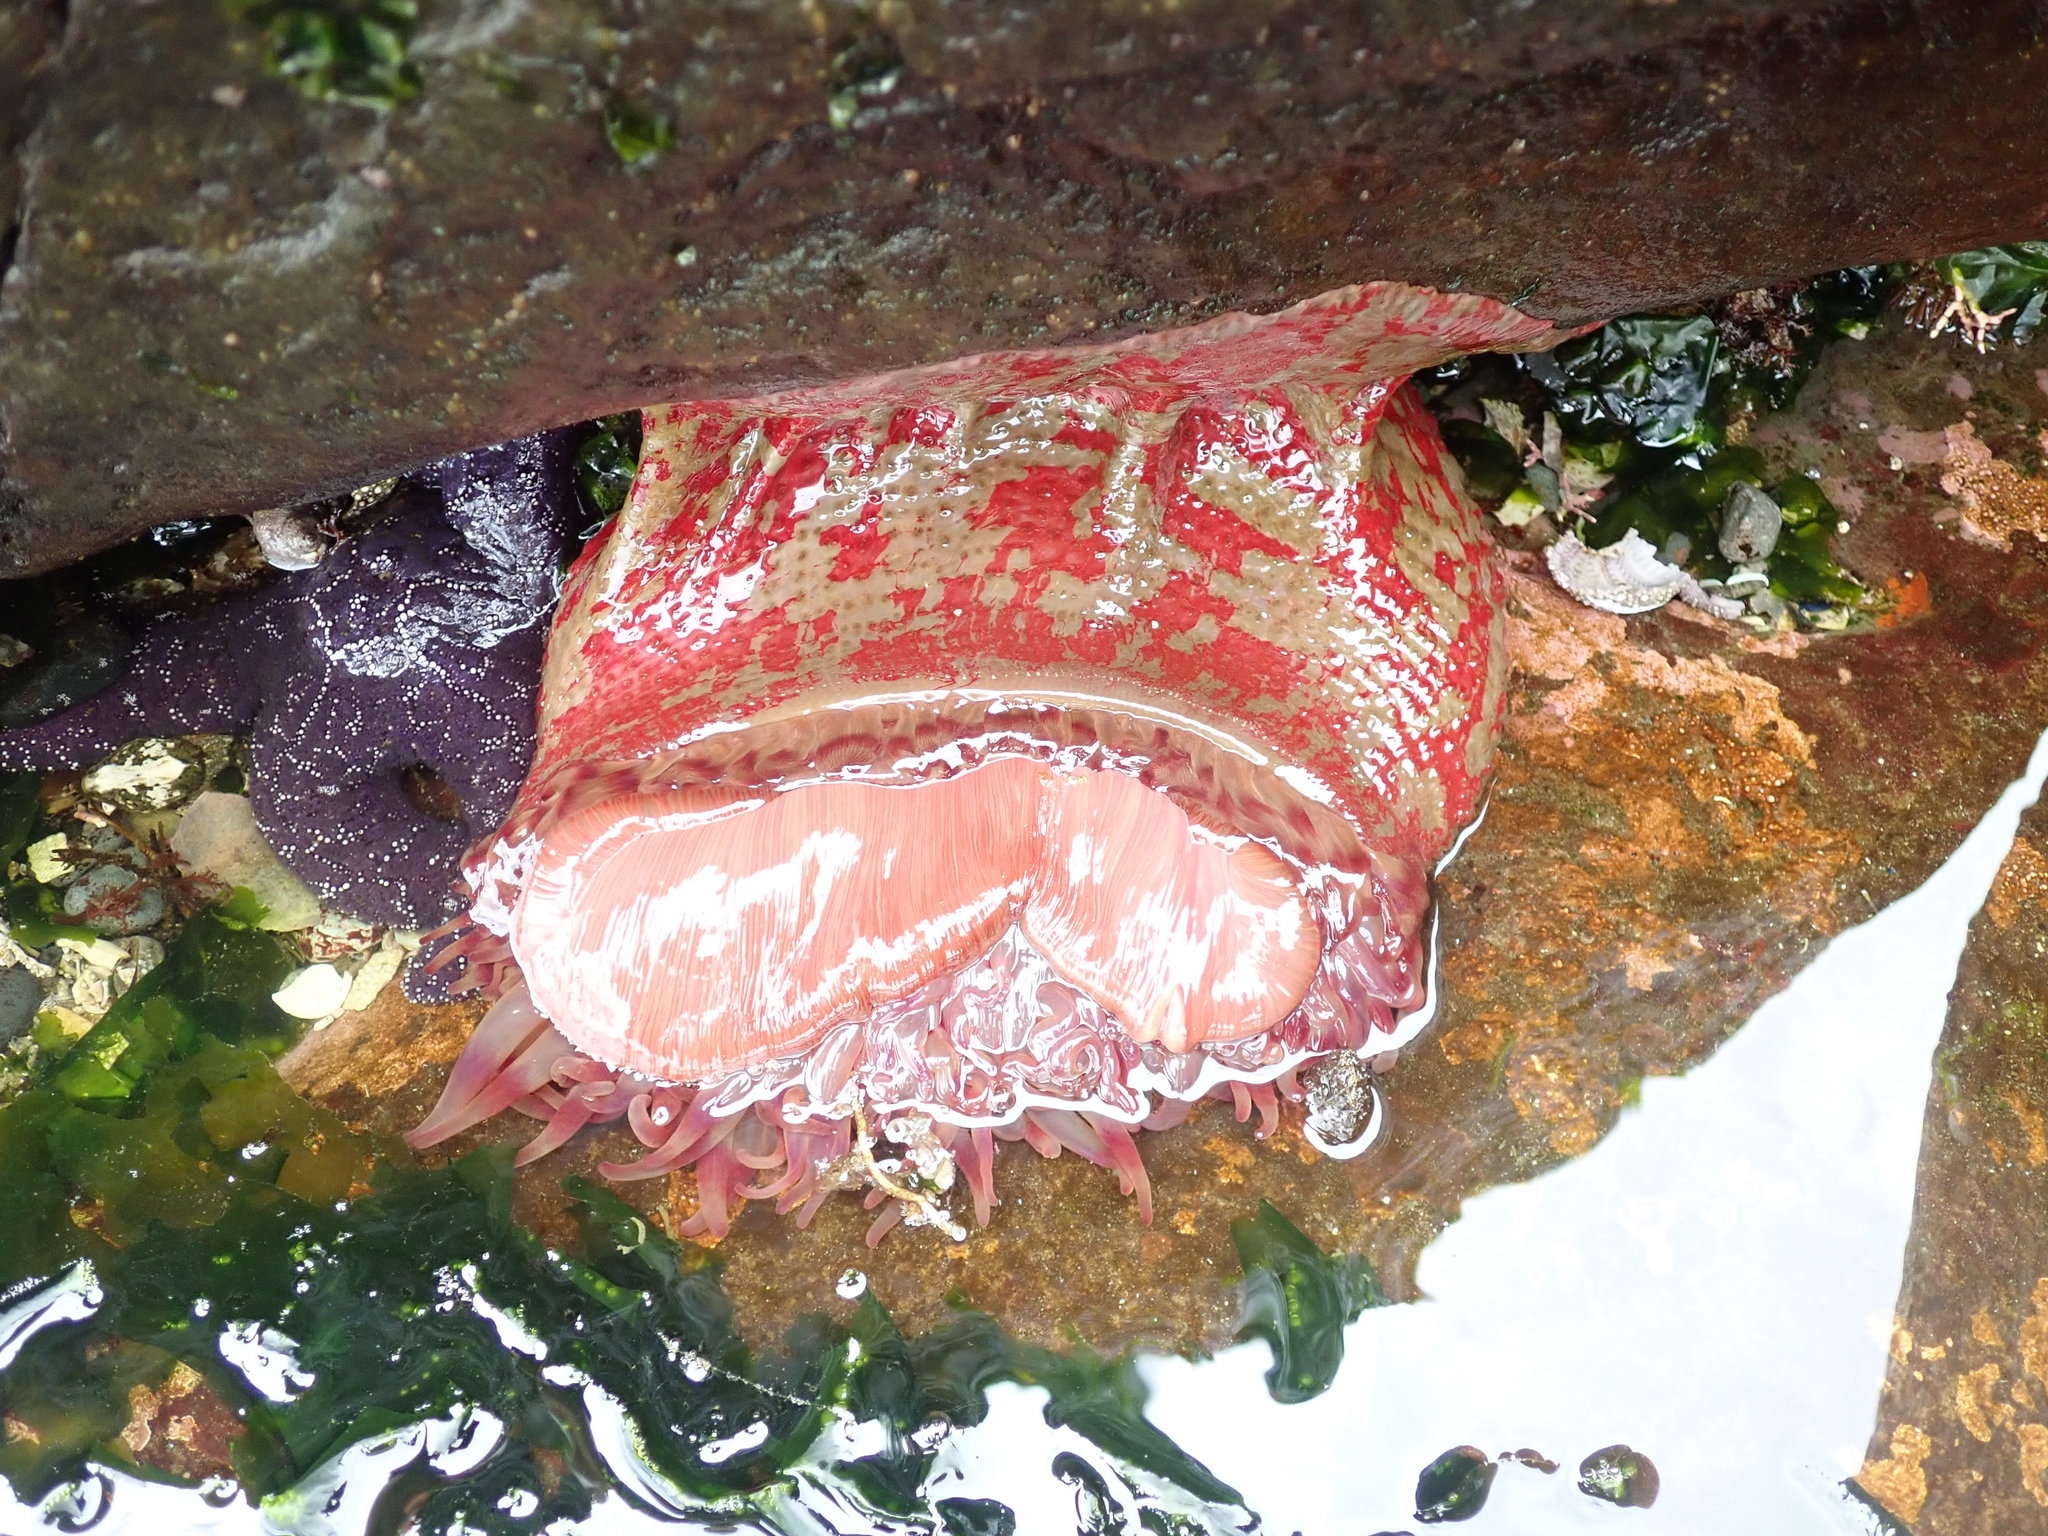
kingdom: Animalia
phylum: Cnidaria
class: Anthozoa
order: Actiniaria
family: Actiniidae
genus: Urticina
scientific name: Urticina grebelnyi
